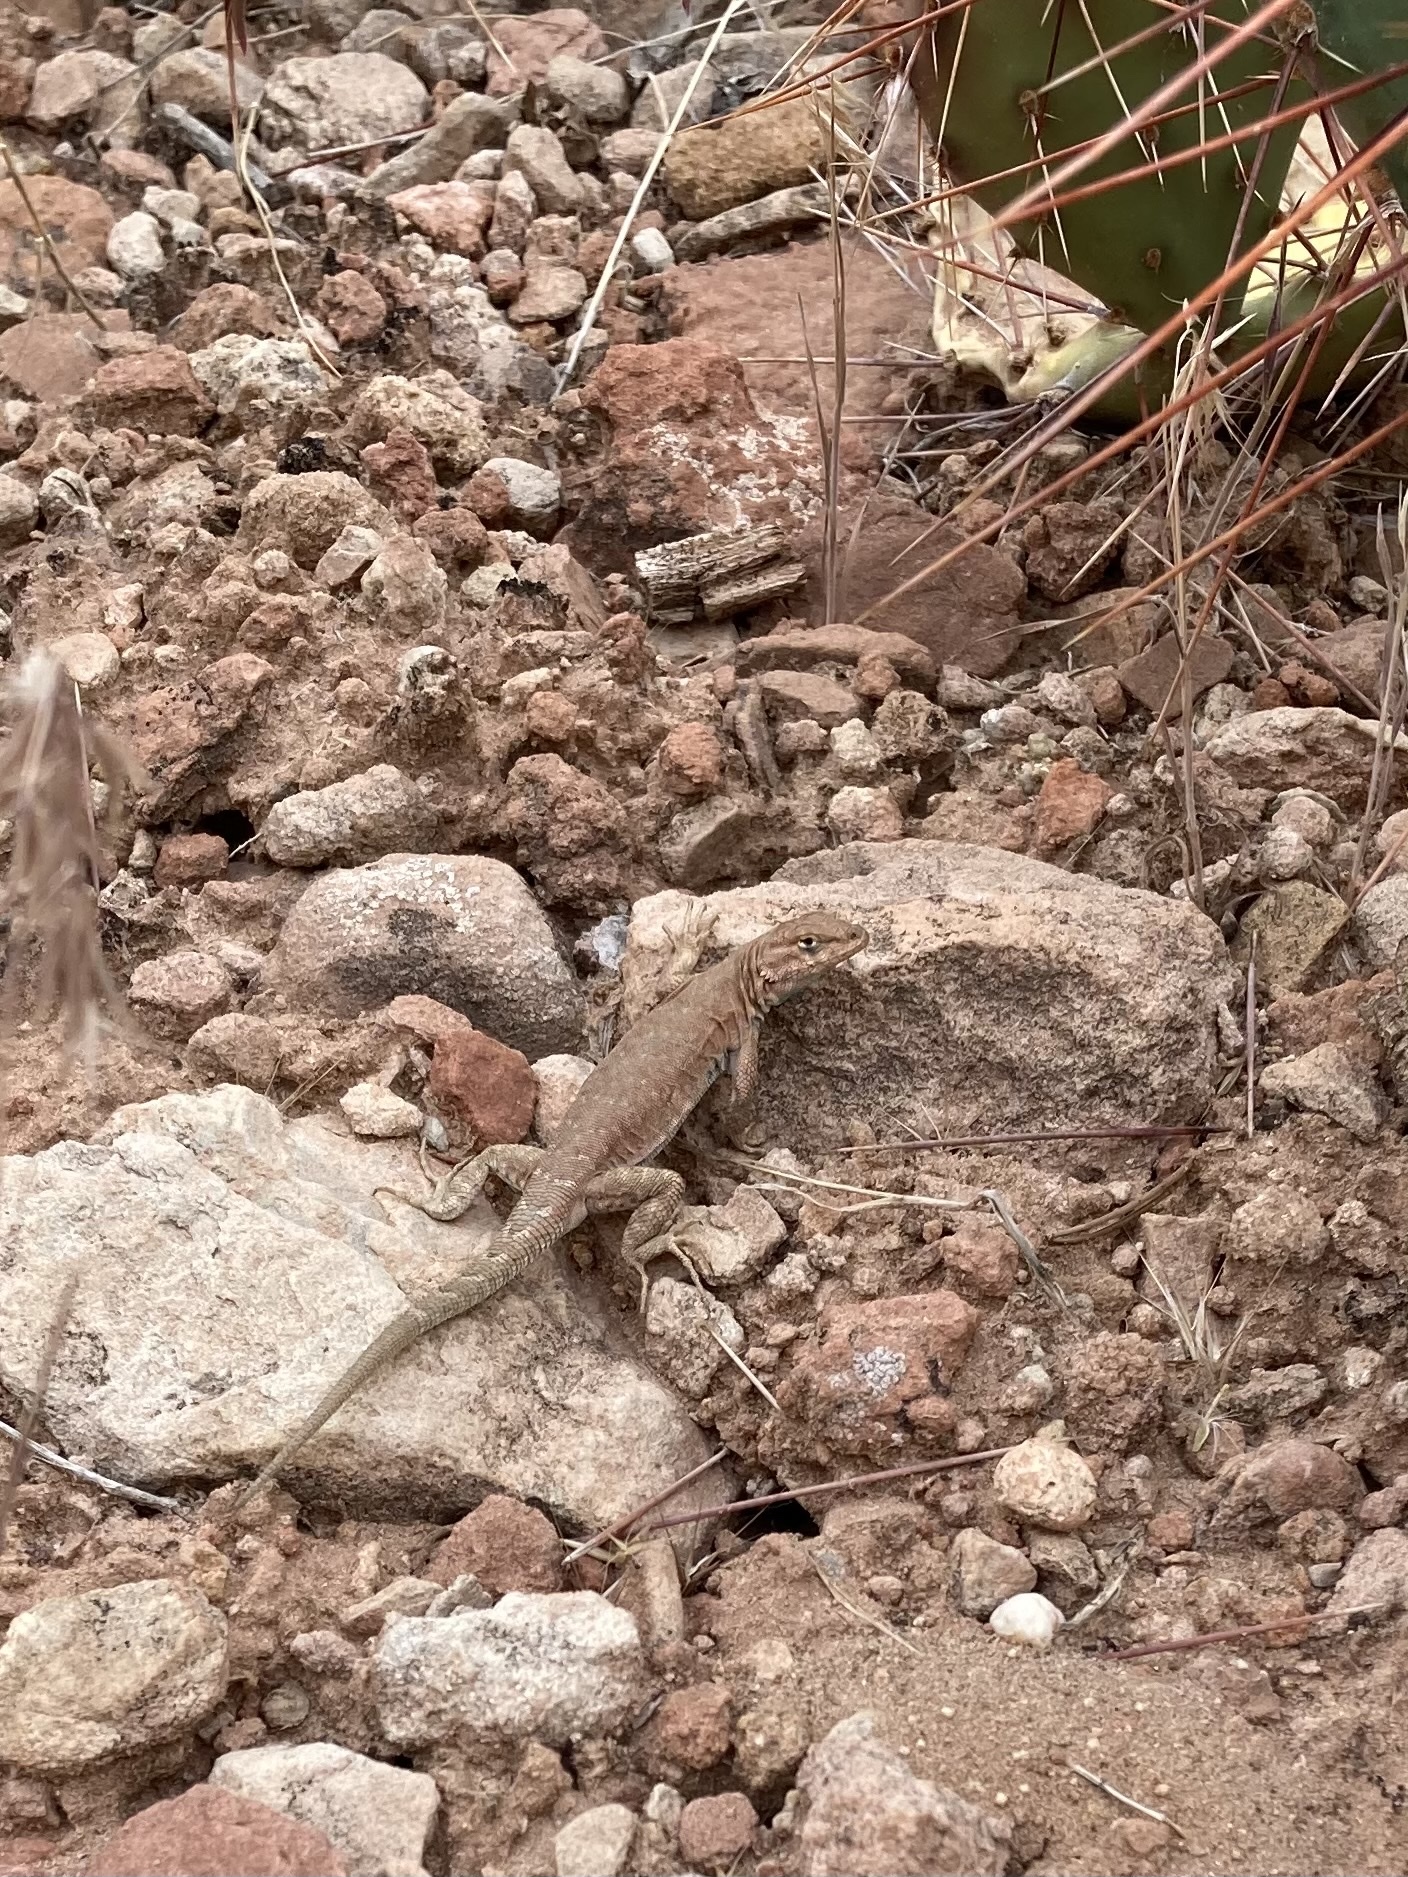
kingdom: Animalia
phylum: Chordata
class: Squamata
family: Phrynosomatidae
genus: Uta
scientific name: Uta stansburiana
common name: Side-blotched lizard
